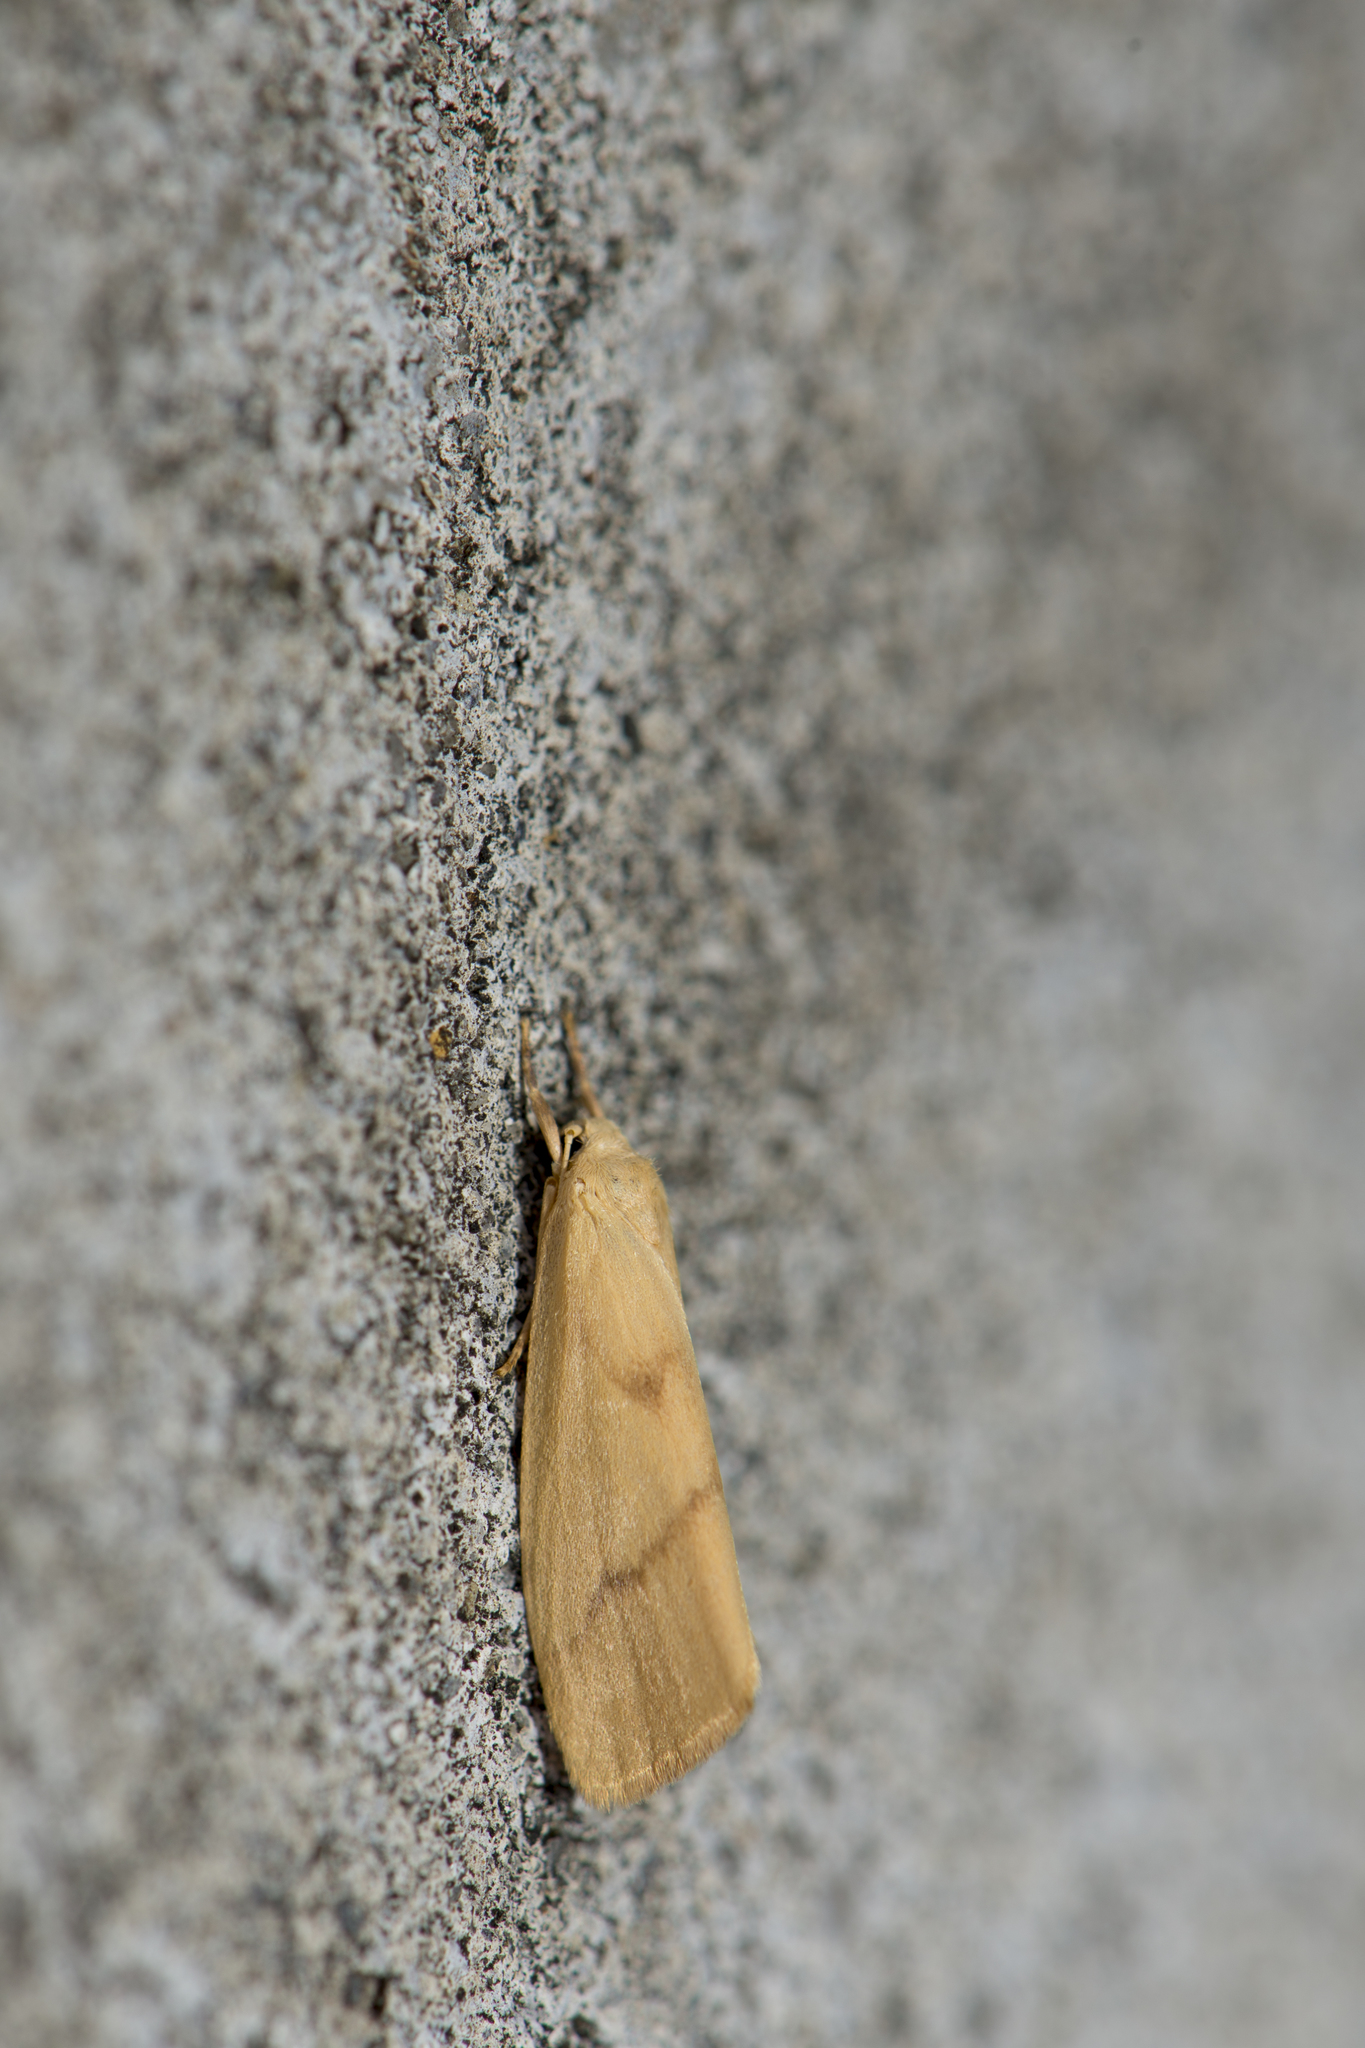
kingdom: Animalia
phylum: Arthropoda
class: Insecta
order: Lepidoptera
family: Erebidae
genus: Notata
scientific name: Notata parva
